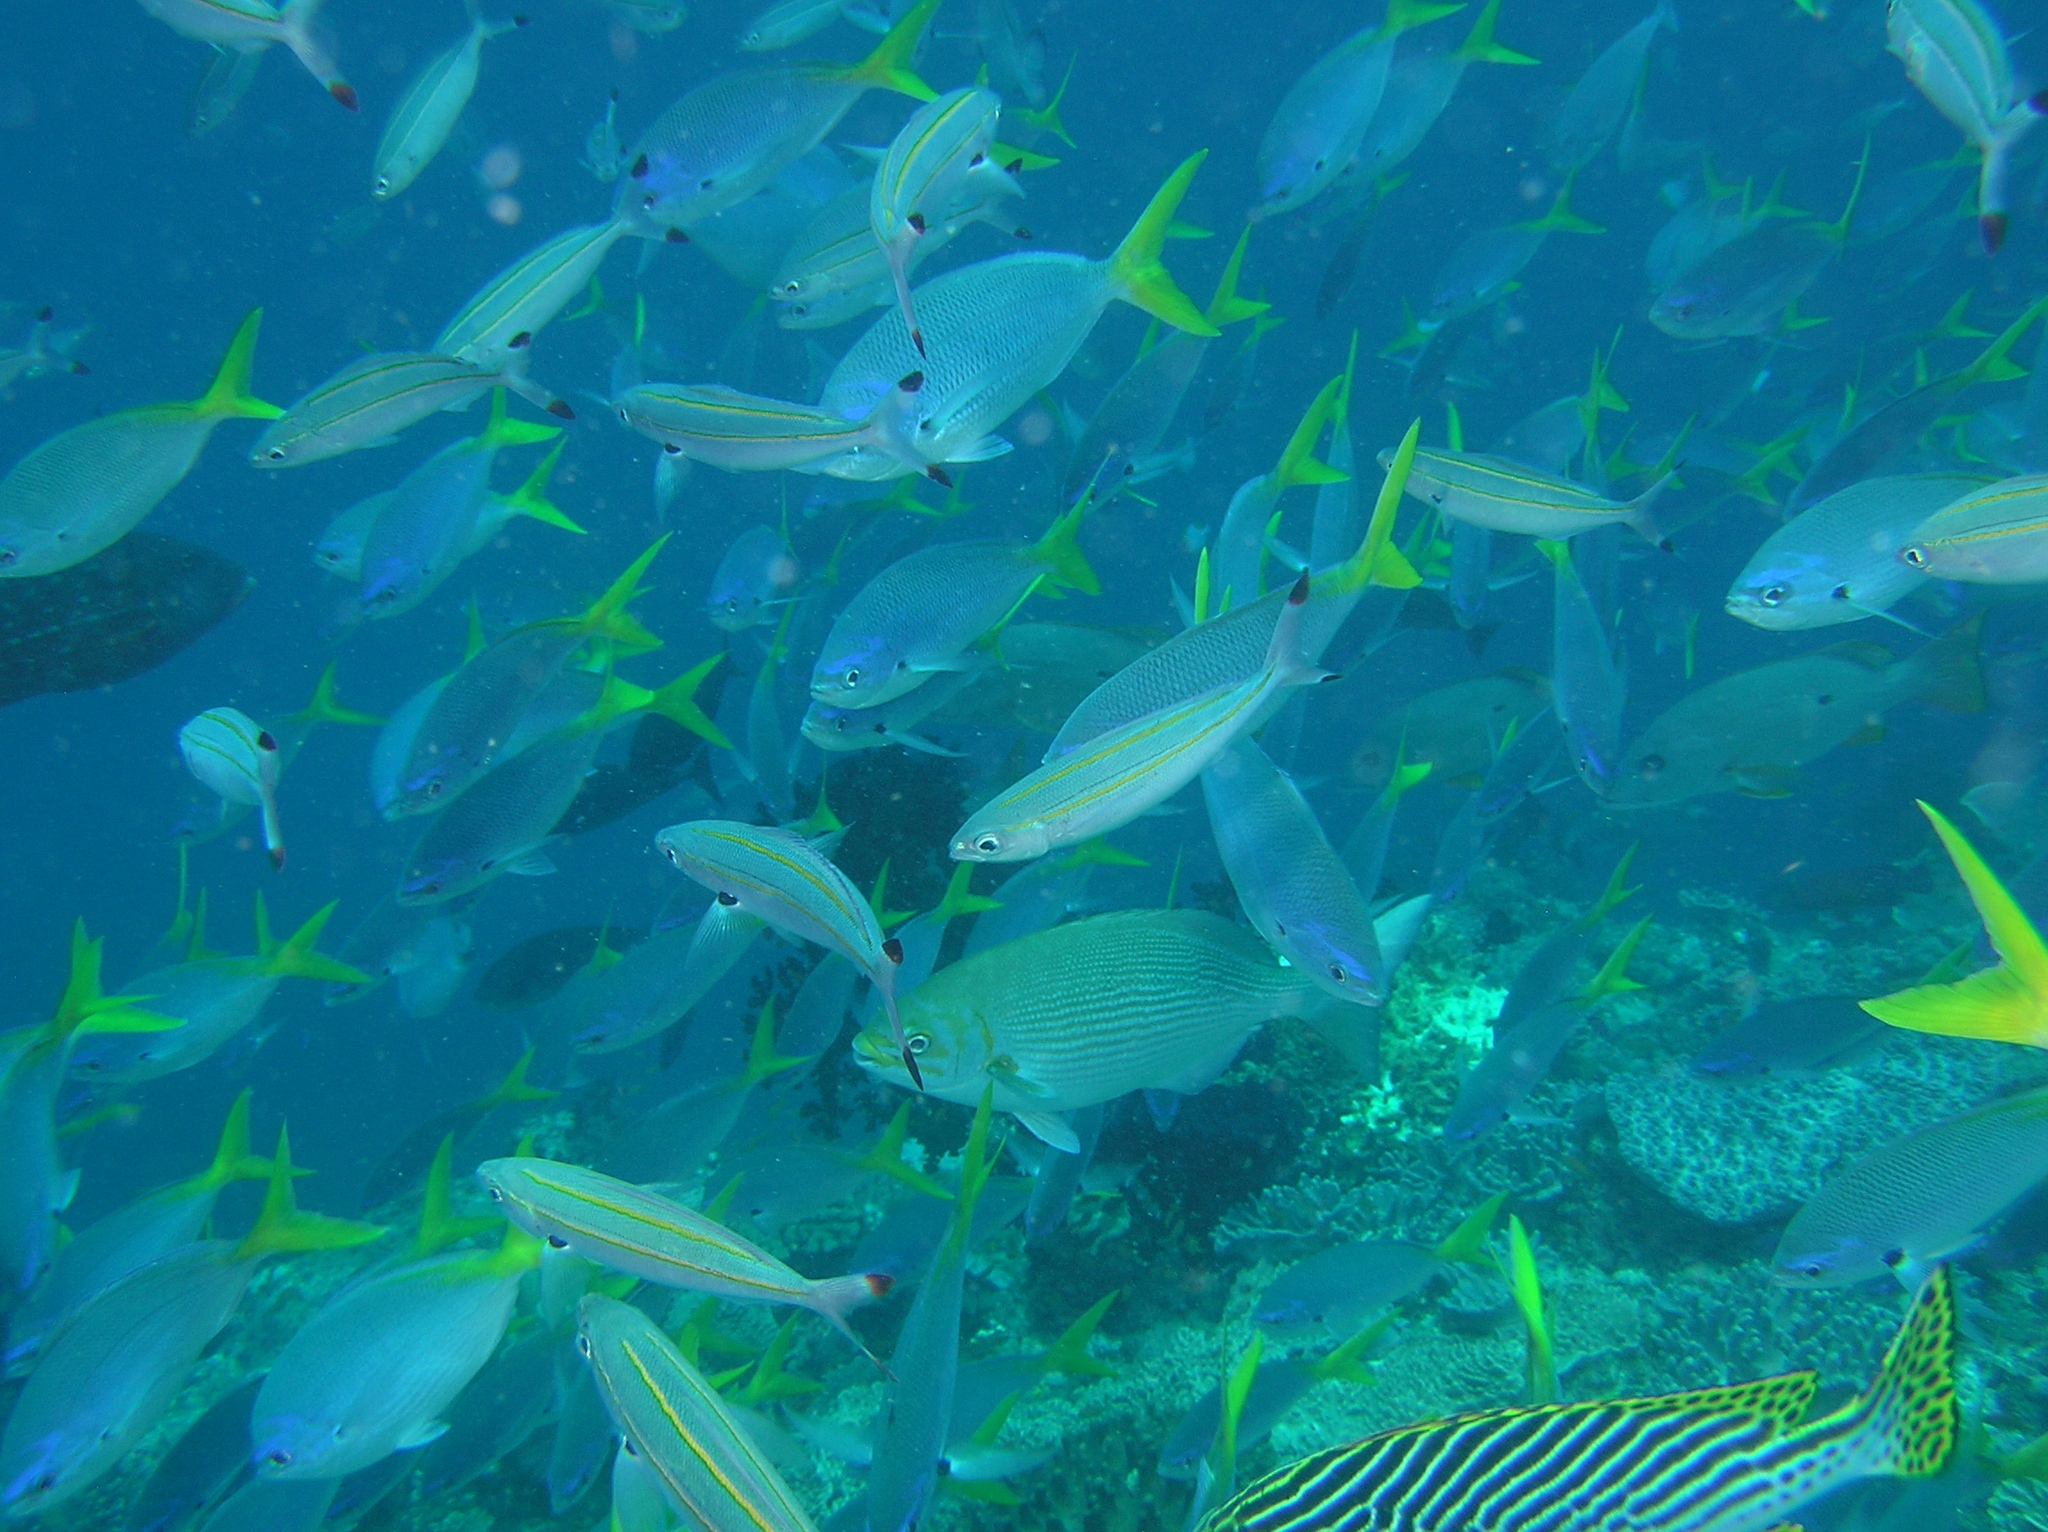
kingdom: Animalia
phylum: Chordata
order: Perciformes
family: Kyphosidae
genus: Kyphosus
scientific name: Kyphosus vaigiensis
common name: Brassy chub
